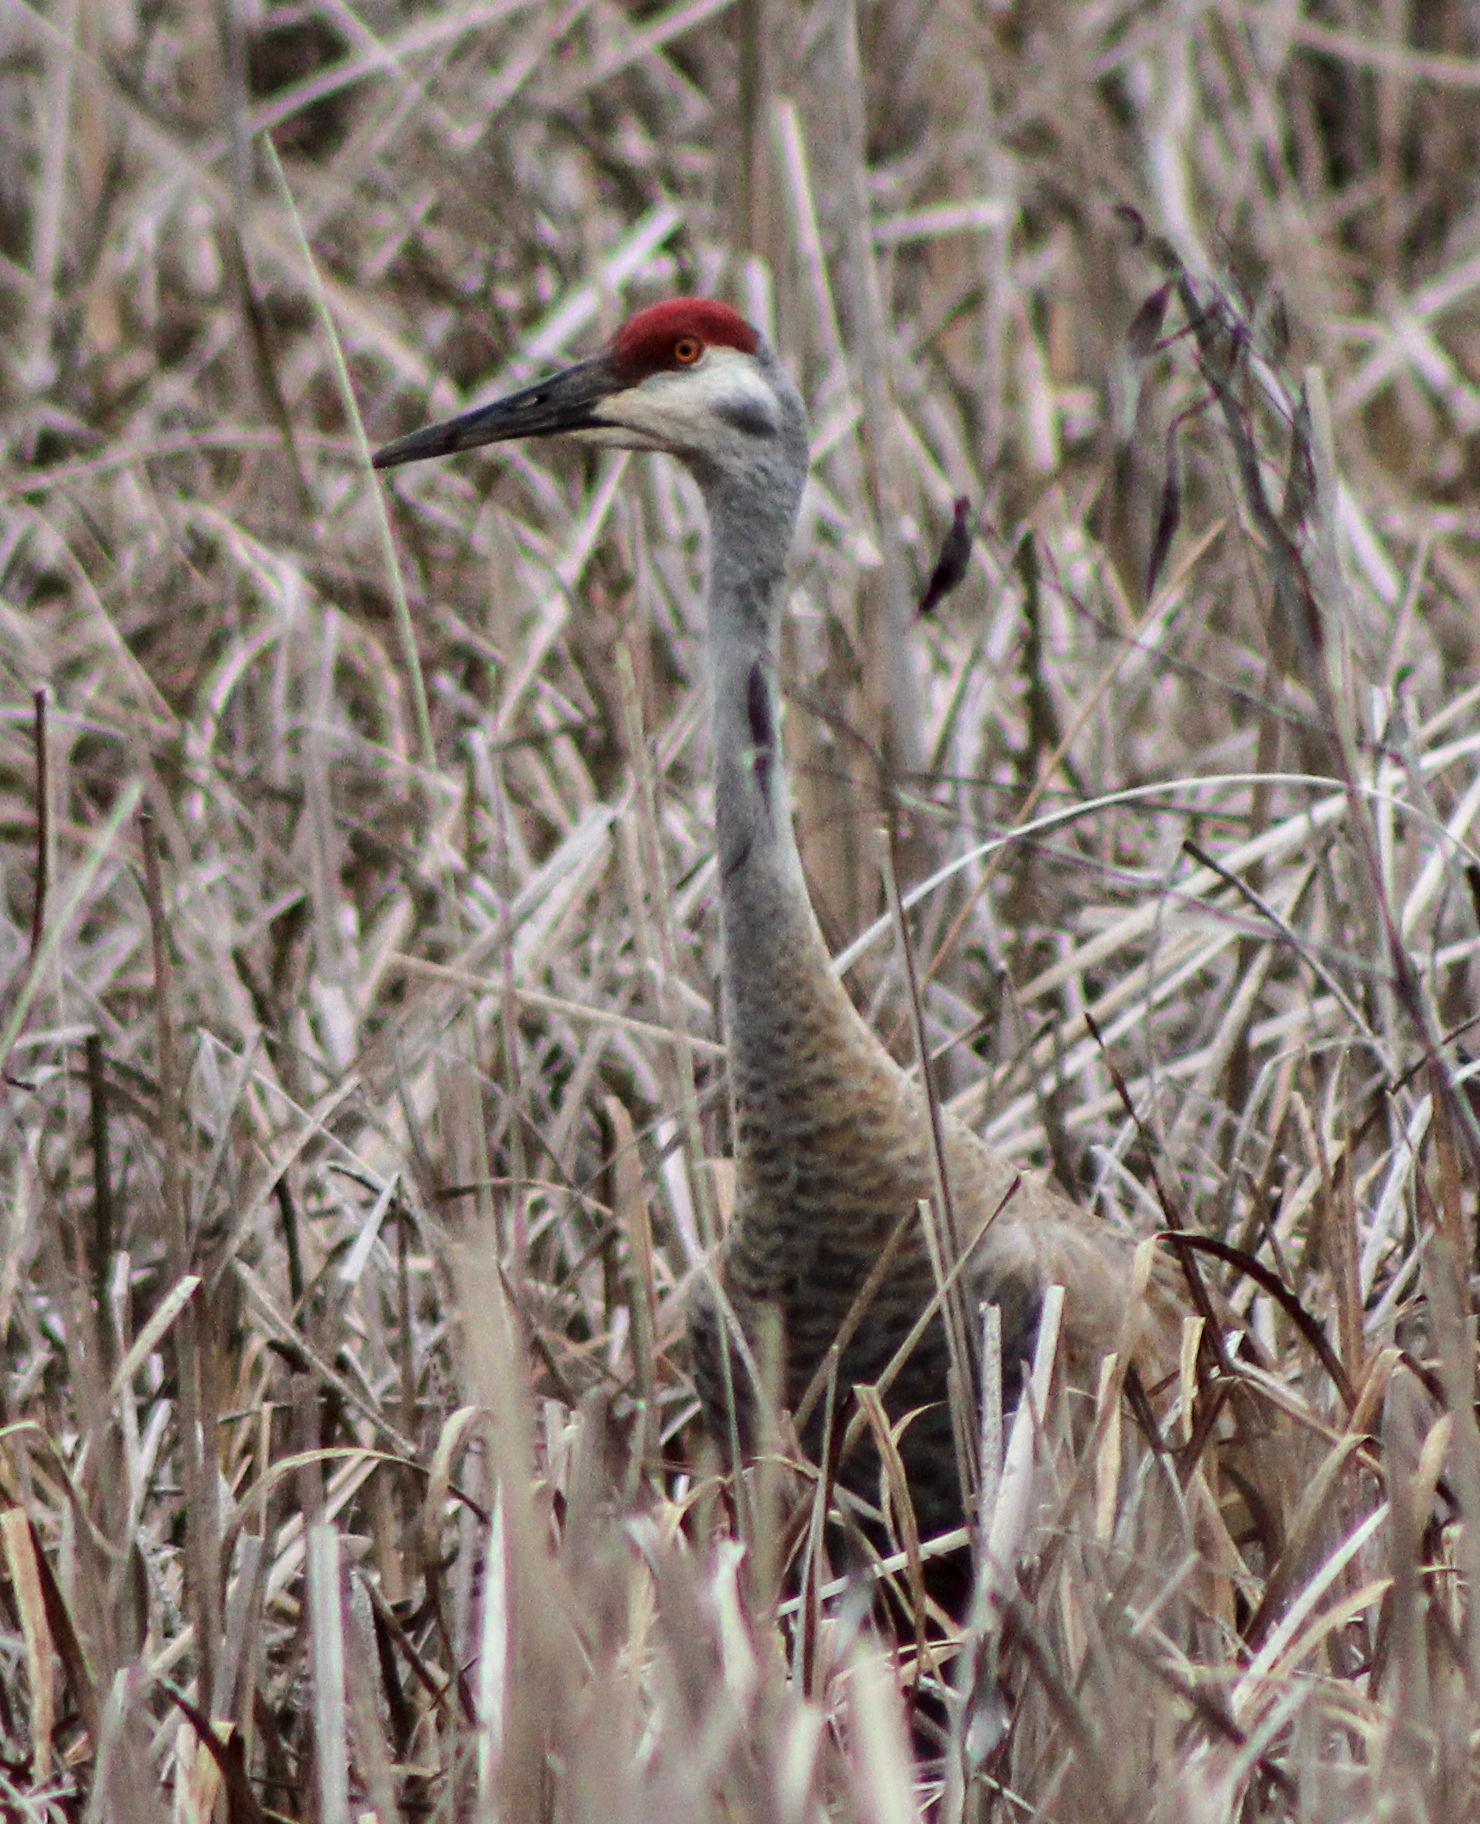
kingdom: Animalia
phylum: Chordata
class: Aves
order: Gruiformes
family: Gruidae
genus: Grus
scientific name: Grus canadensis
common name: Sandhill crane
